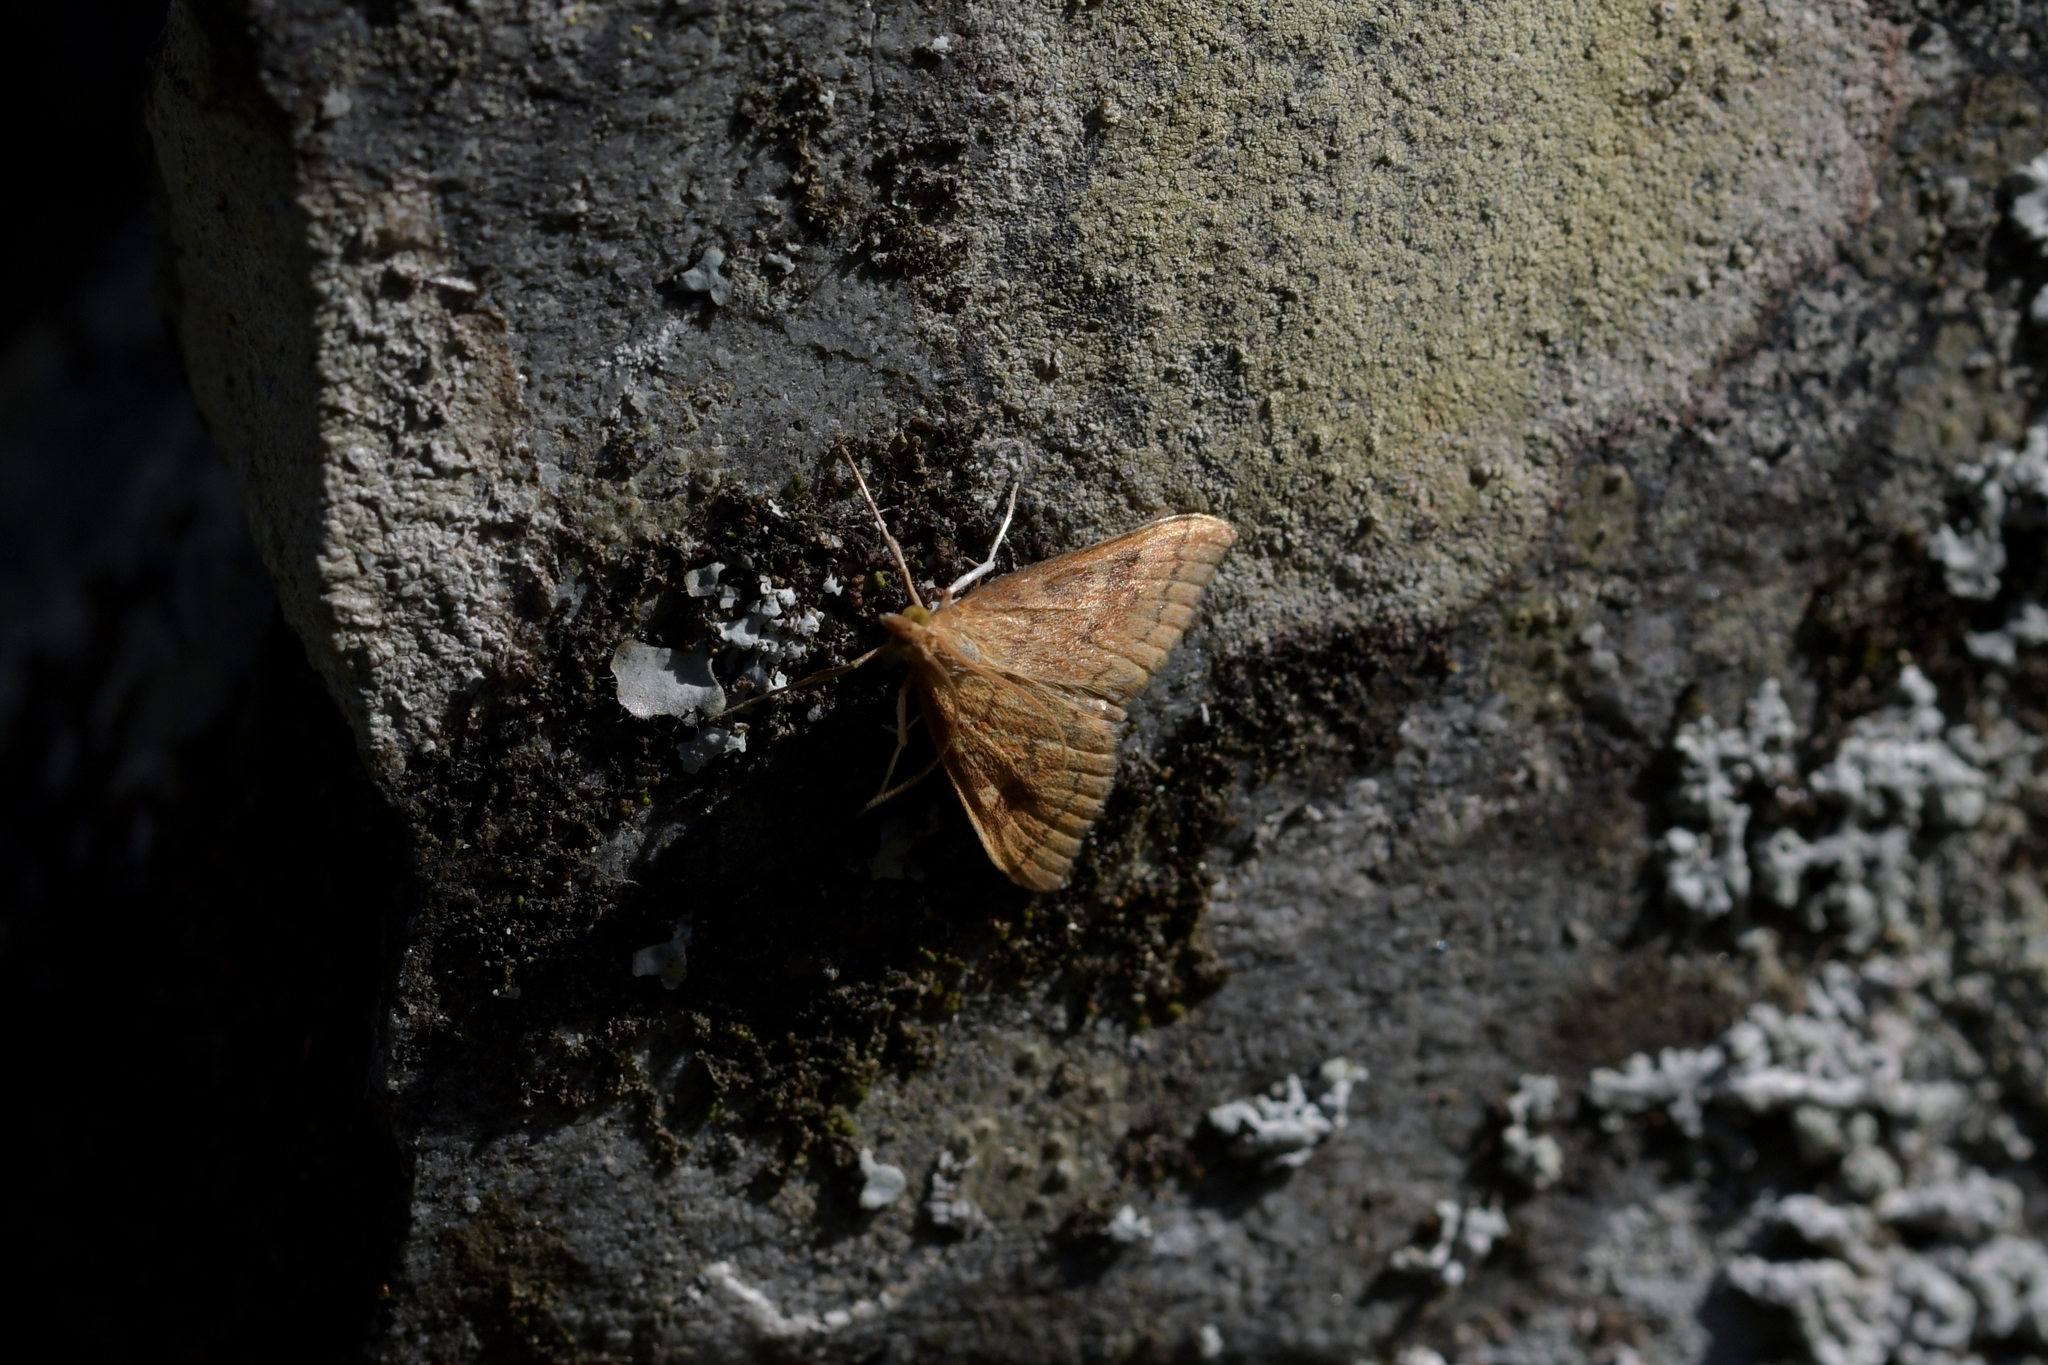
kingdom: Animalia
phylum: Arthropoda
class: Insecta
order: Lepidoptera
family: Crambidae
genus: Udea
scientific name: Udea Mnesictena flavidalis
